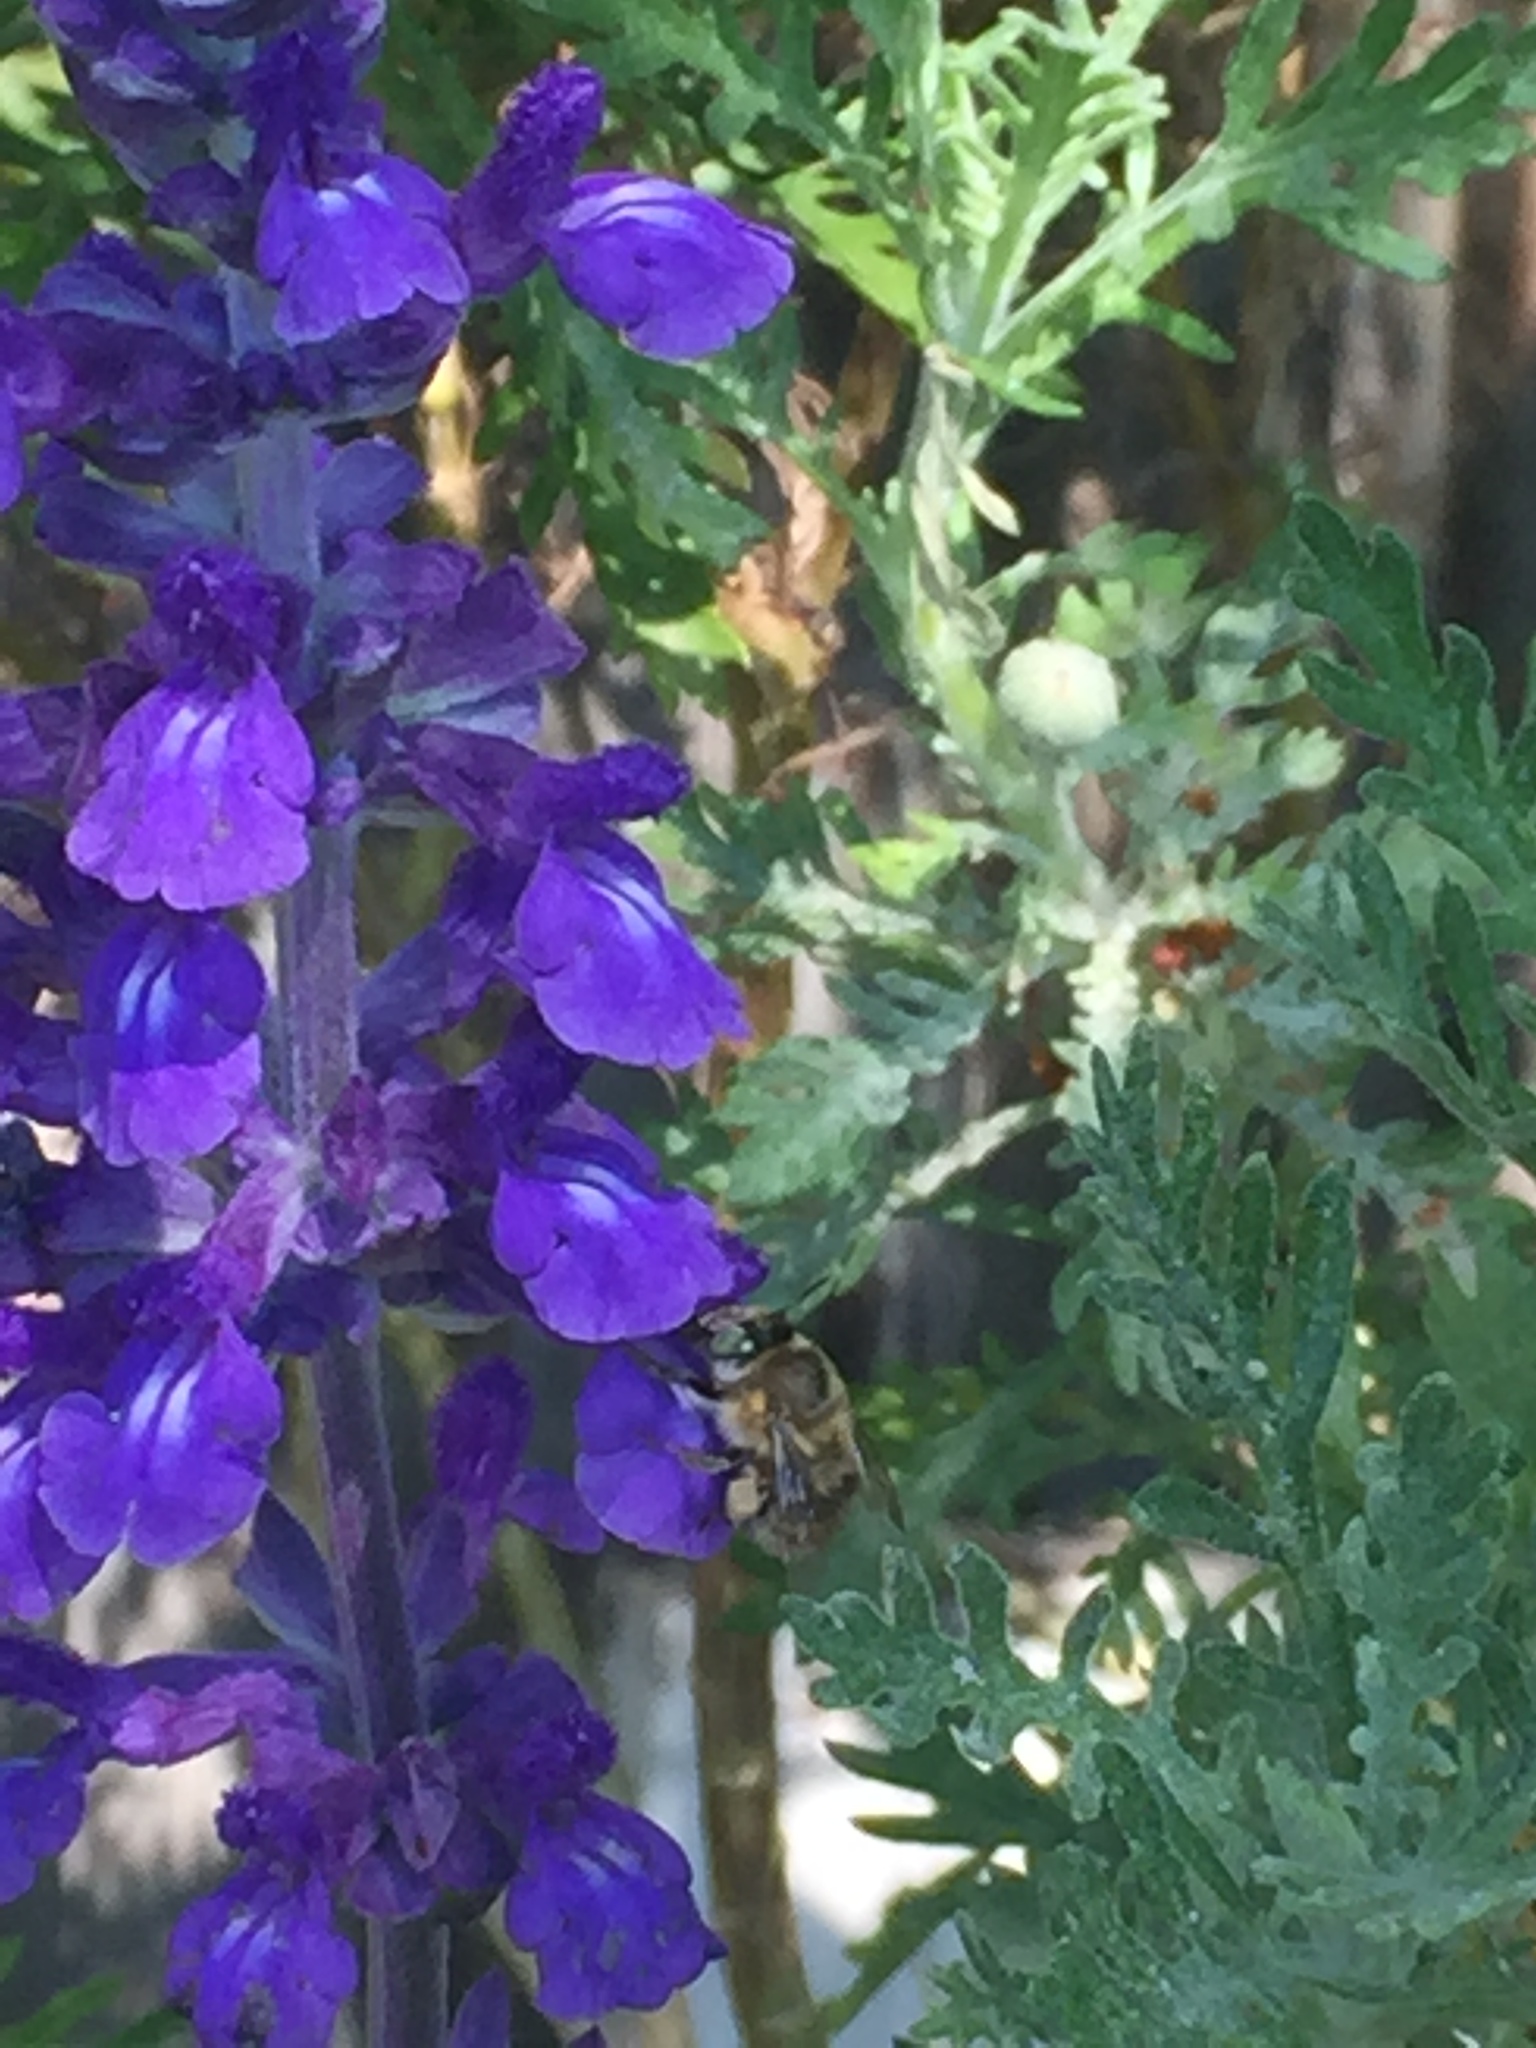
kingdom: Animalia
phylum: Arthropoda
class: Insecta
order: Hymenoptera
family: Apidae
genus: Anthophora
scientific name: Anthophora quadrimaculata
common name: Four-banded flower bee
